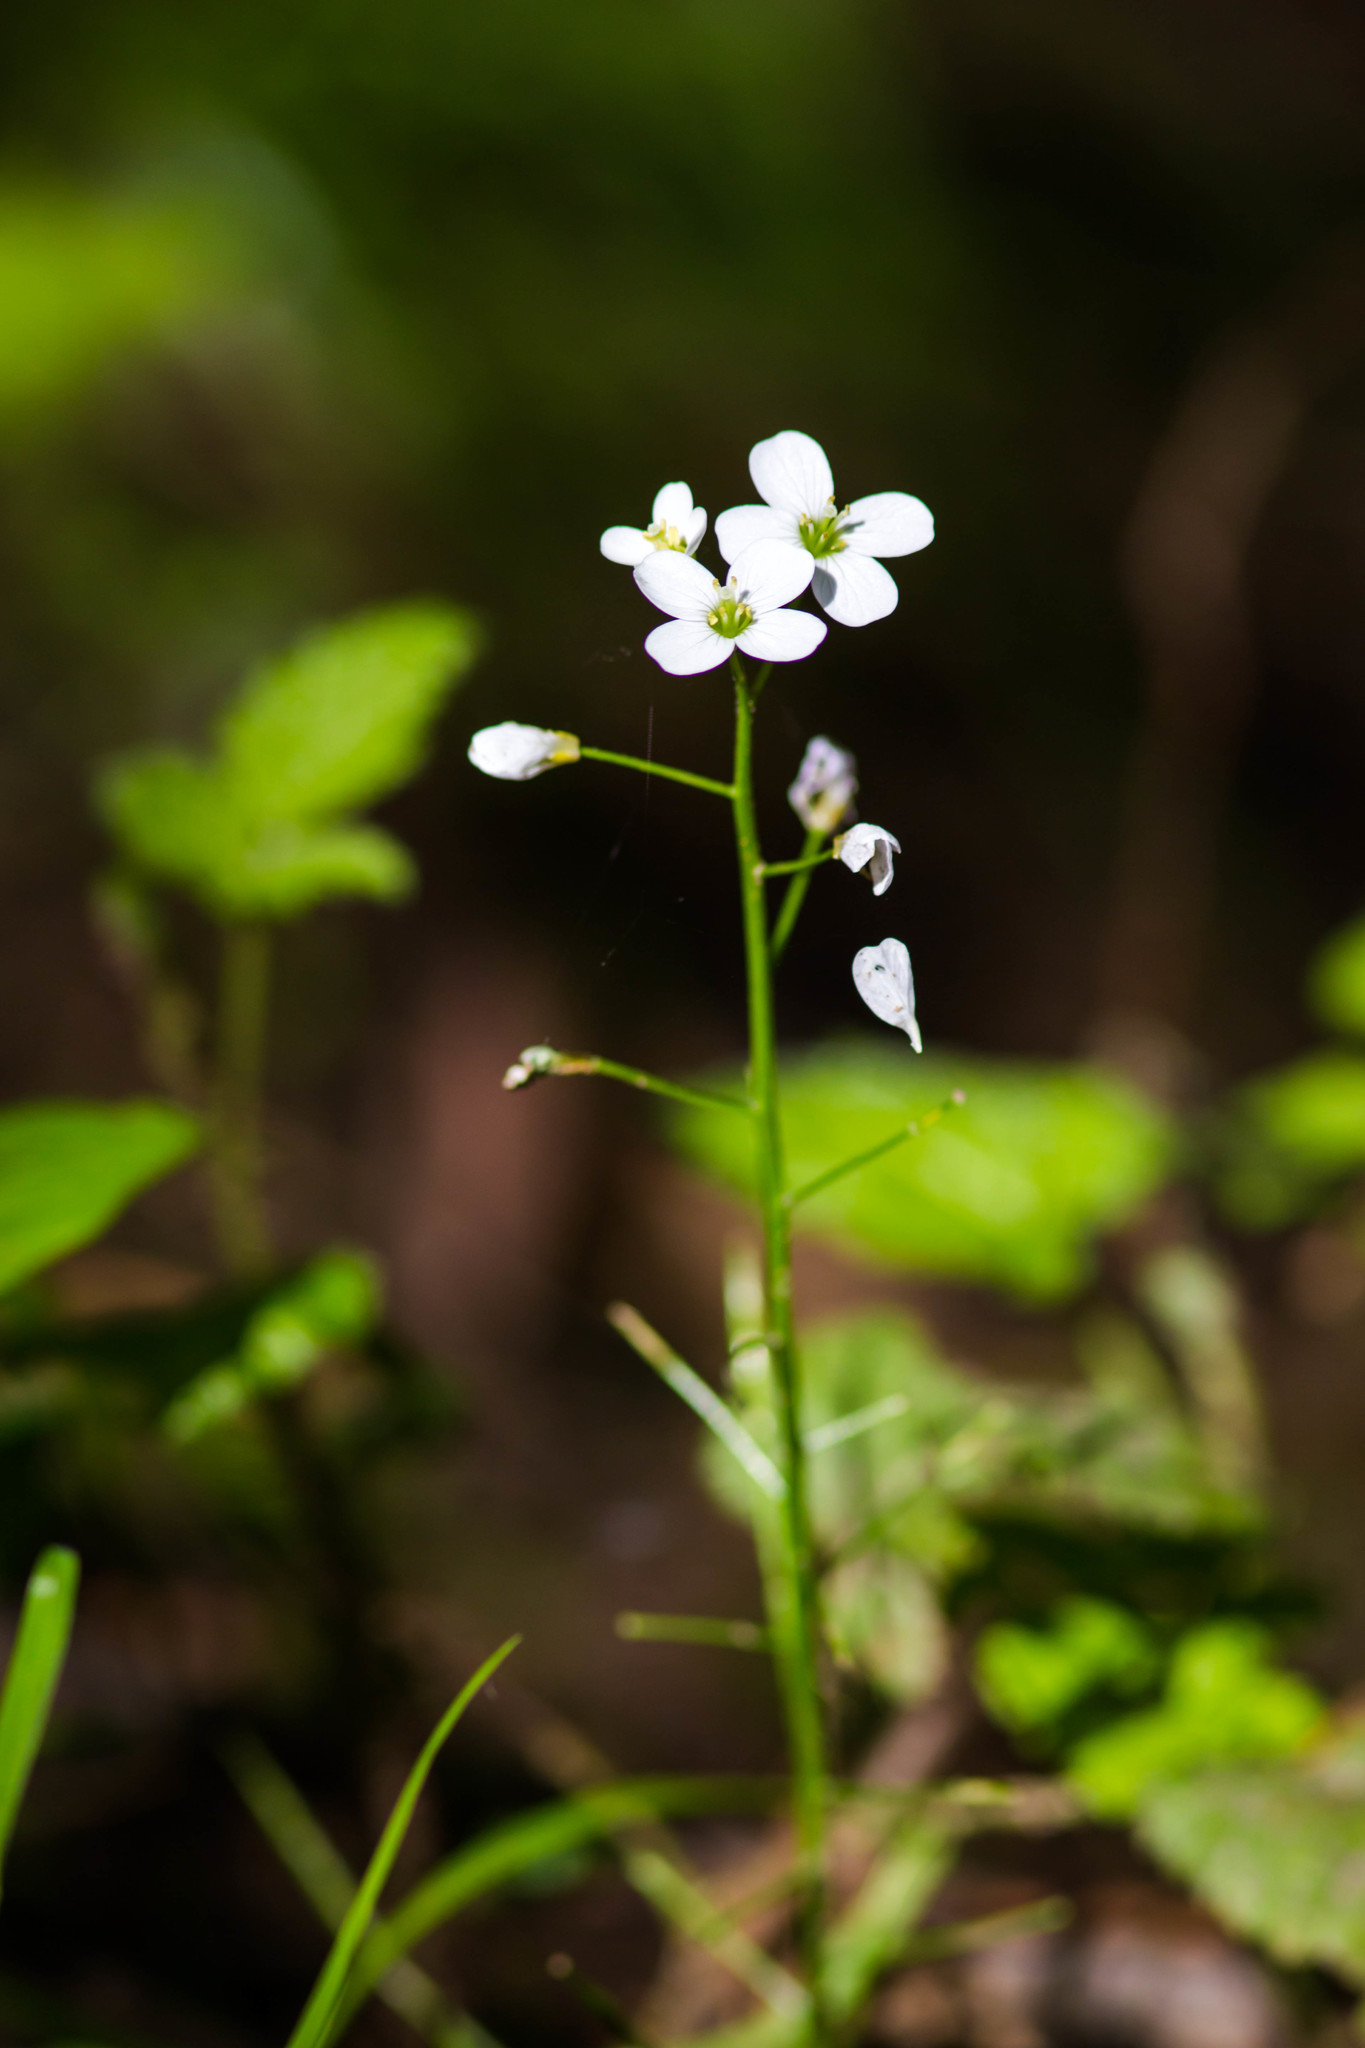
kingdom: Plantae
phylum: Tracheophyta
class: Magnoliopsida
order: Brassicales
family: Brassicaceae
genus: Cardamine
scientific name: Cardamine californica
